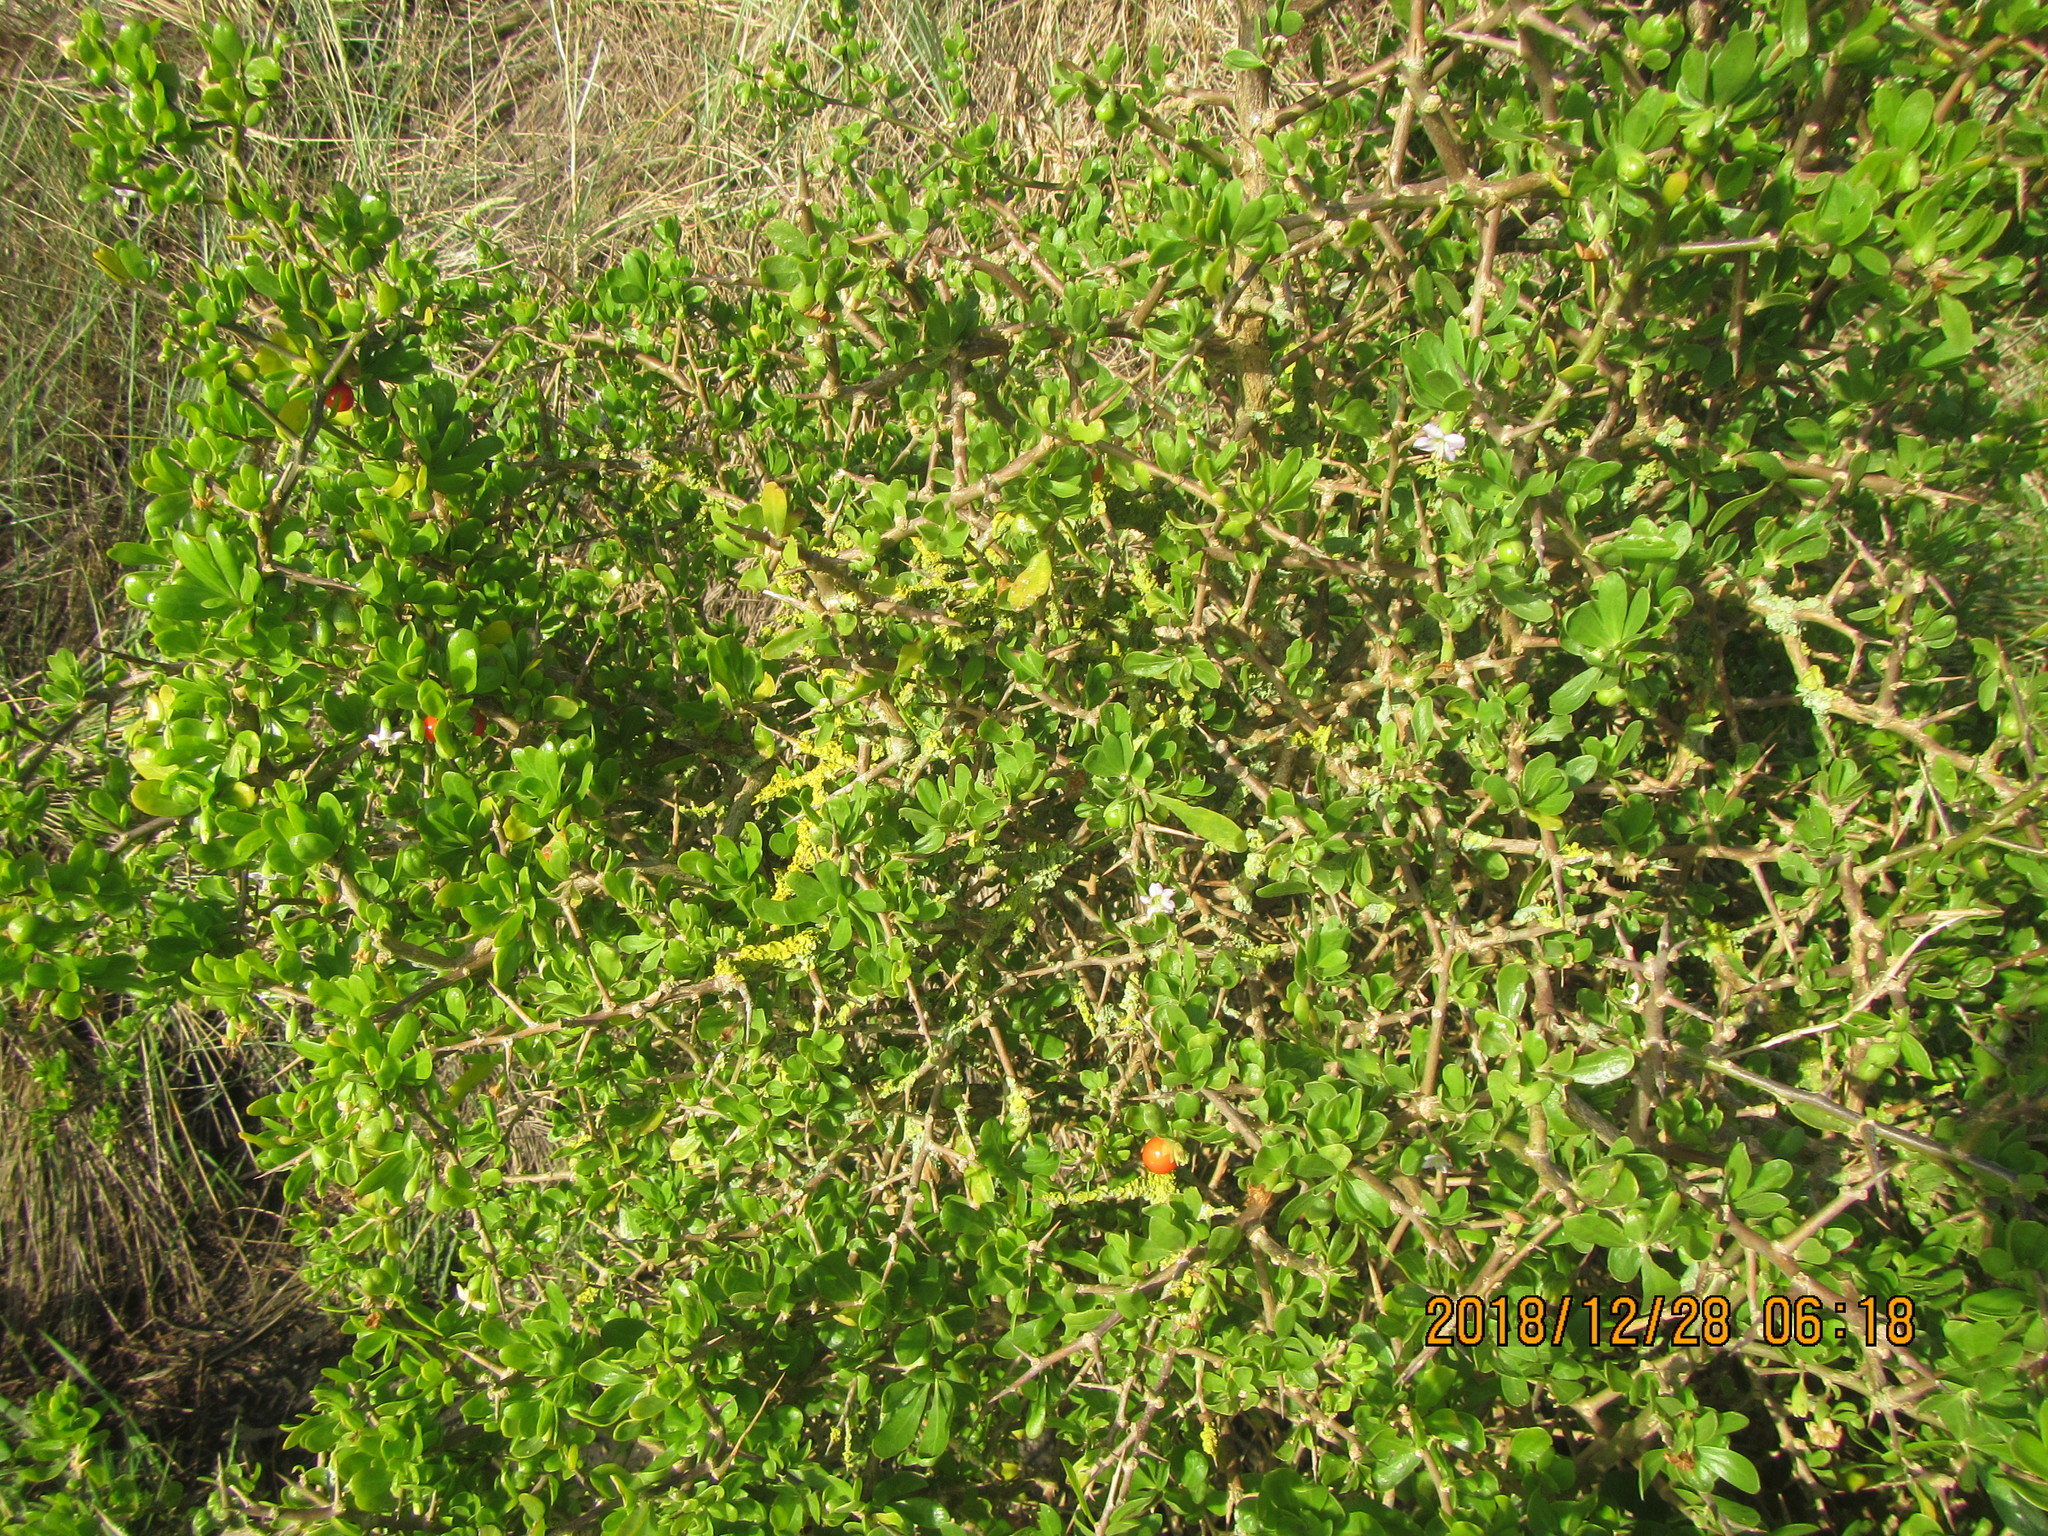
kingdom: Plantae
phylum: Tracheophyta
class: Magnoliopsida
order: Solanales
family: Solanaceae
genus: Lycium
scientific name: Lycium ferocissimum
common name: African boxthorn
